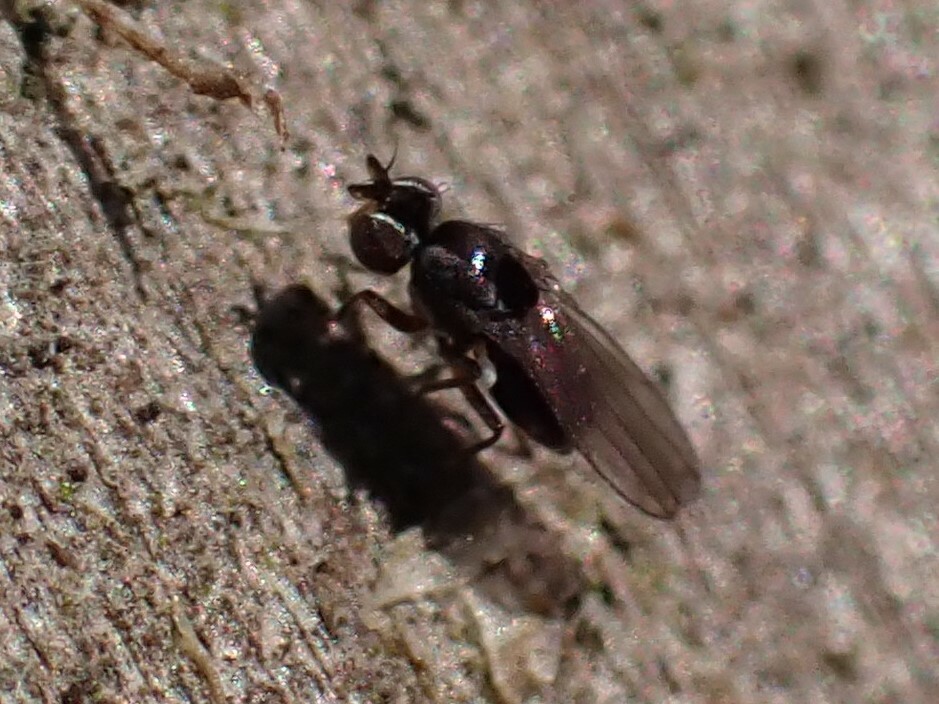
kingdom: Animalia
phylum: Arthropoda
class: Insecta
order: Diptera
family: Ephydridae
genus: Nostima
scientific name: Nostima picta
